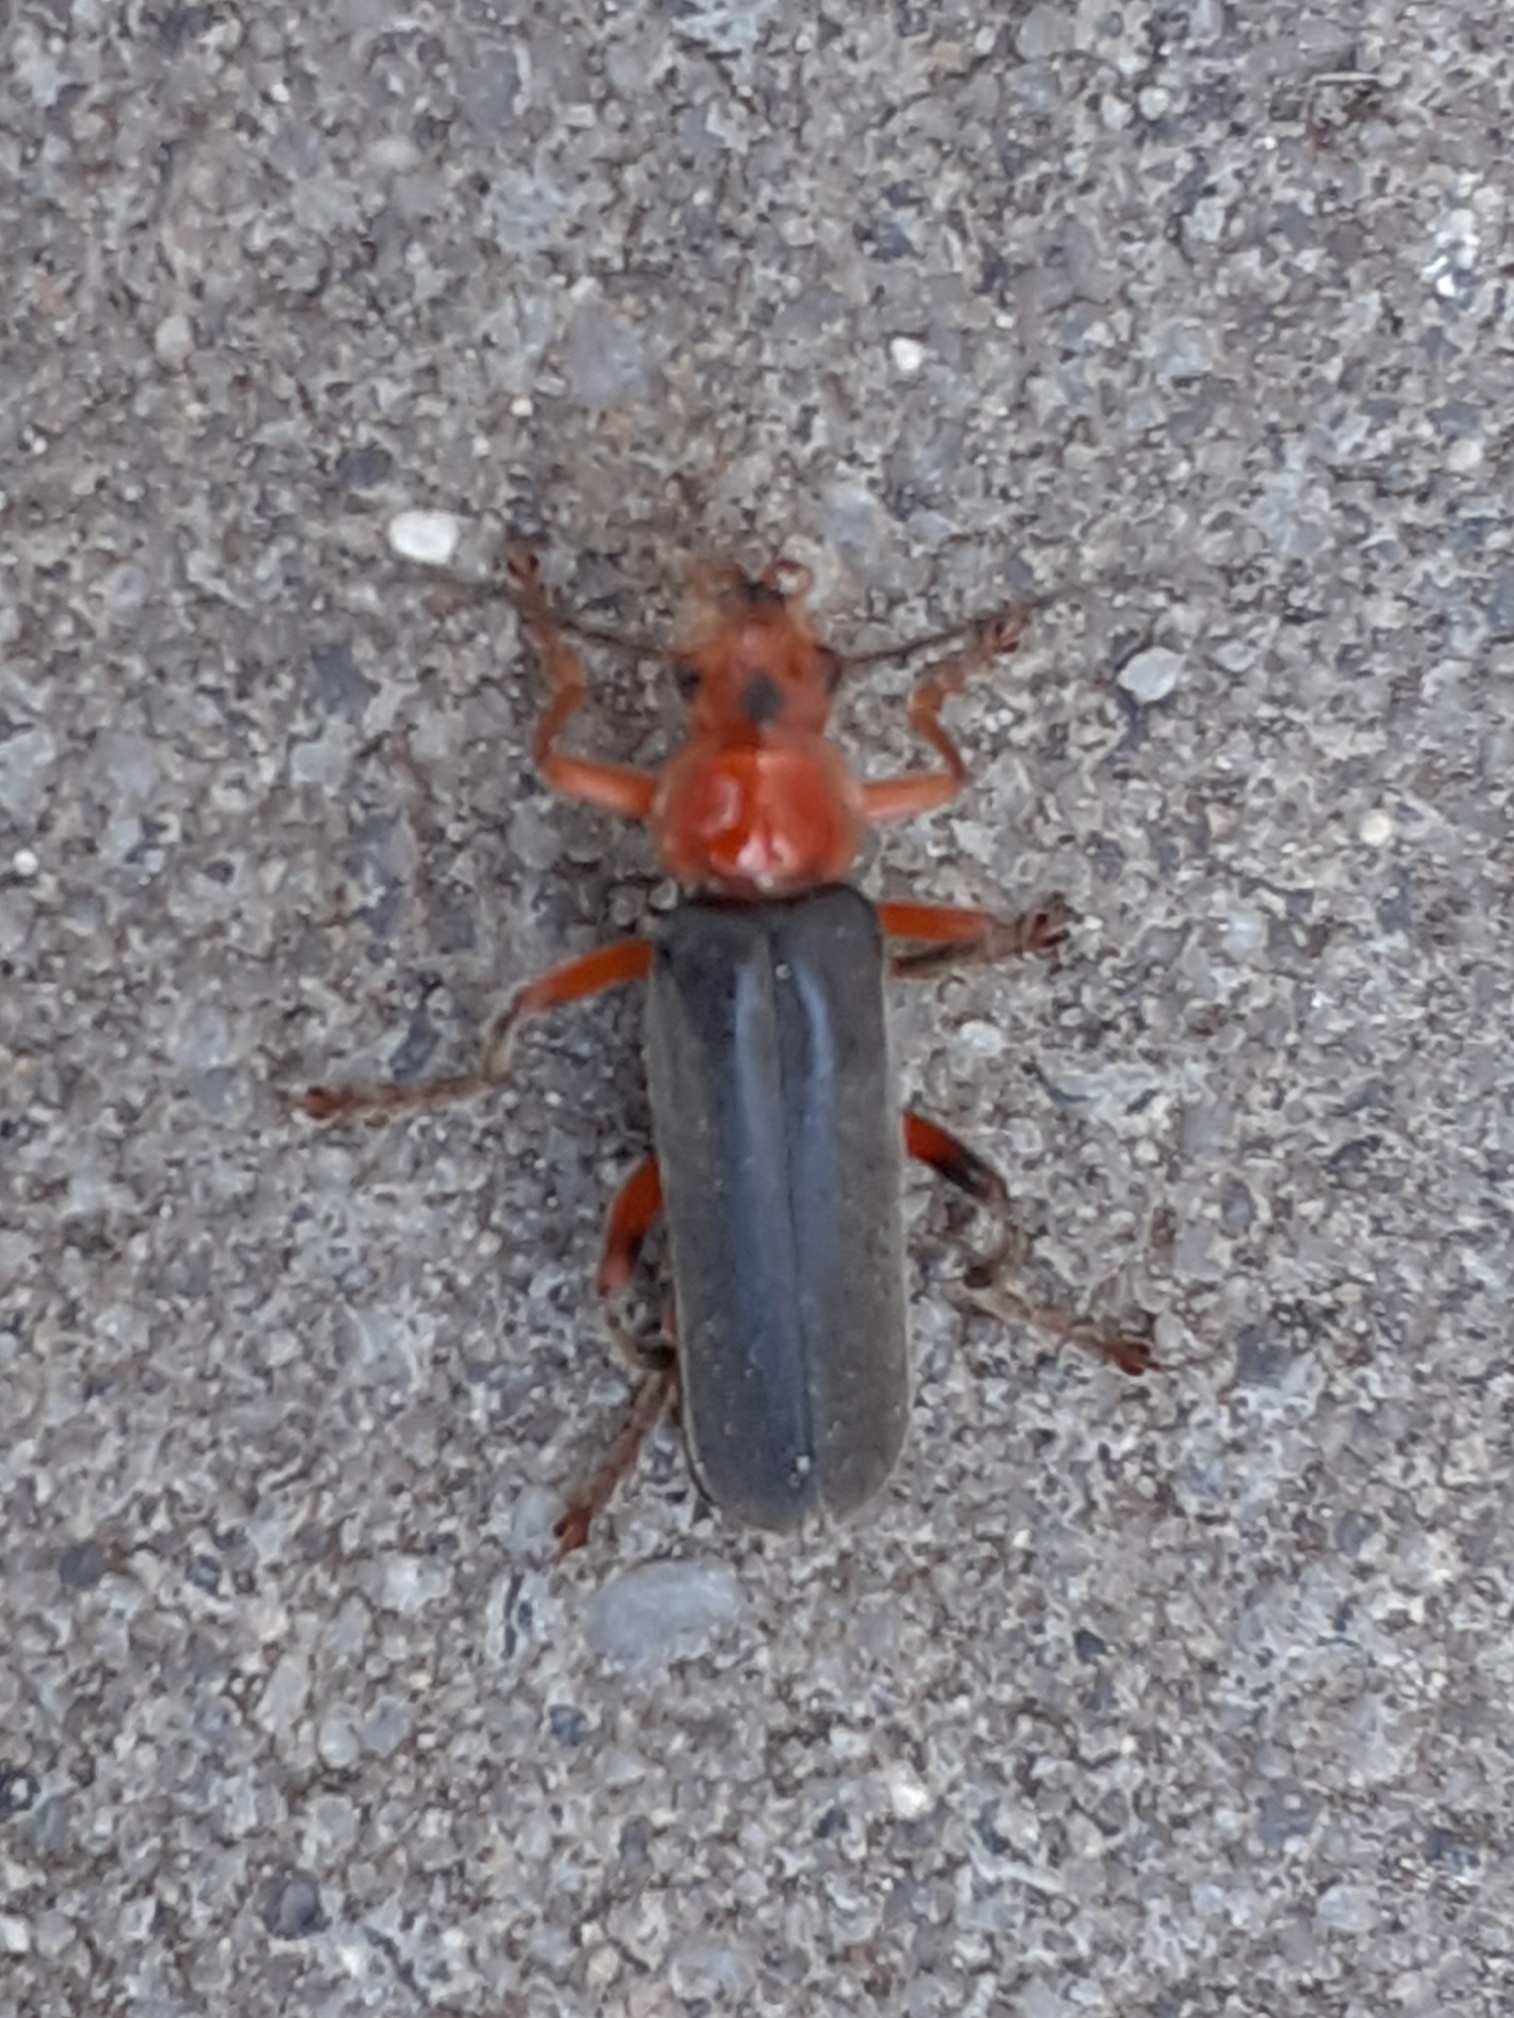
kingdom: Animalia
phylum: Arthropoda
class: Insecta
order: Coleoptera
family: Cantharidae
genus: Cantharis
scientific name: Cantharis livida
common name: Livid soldier beetle
